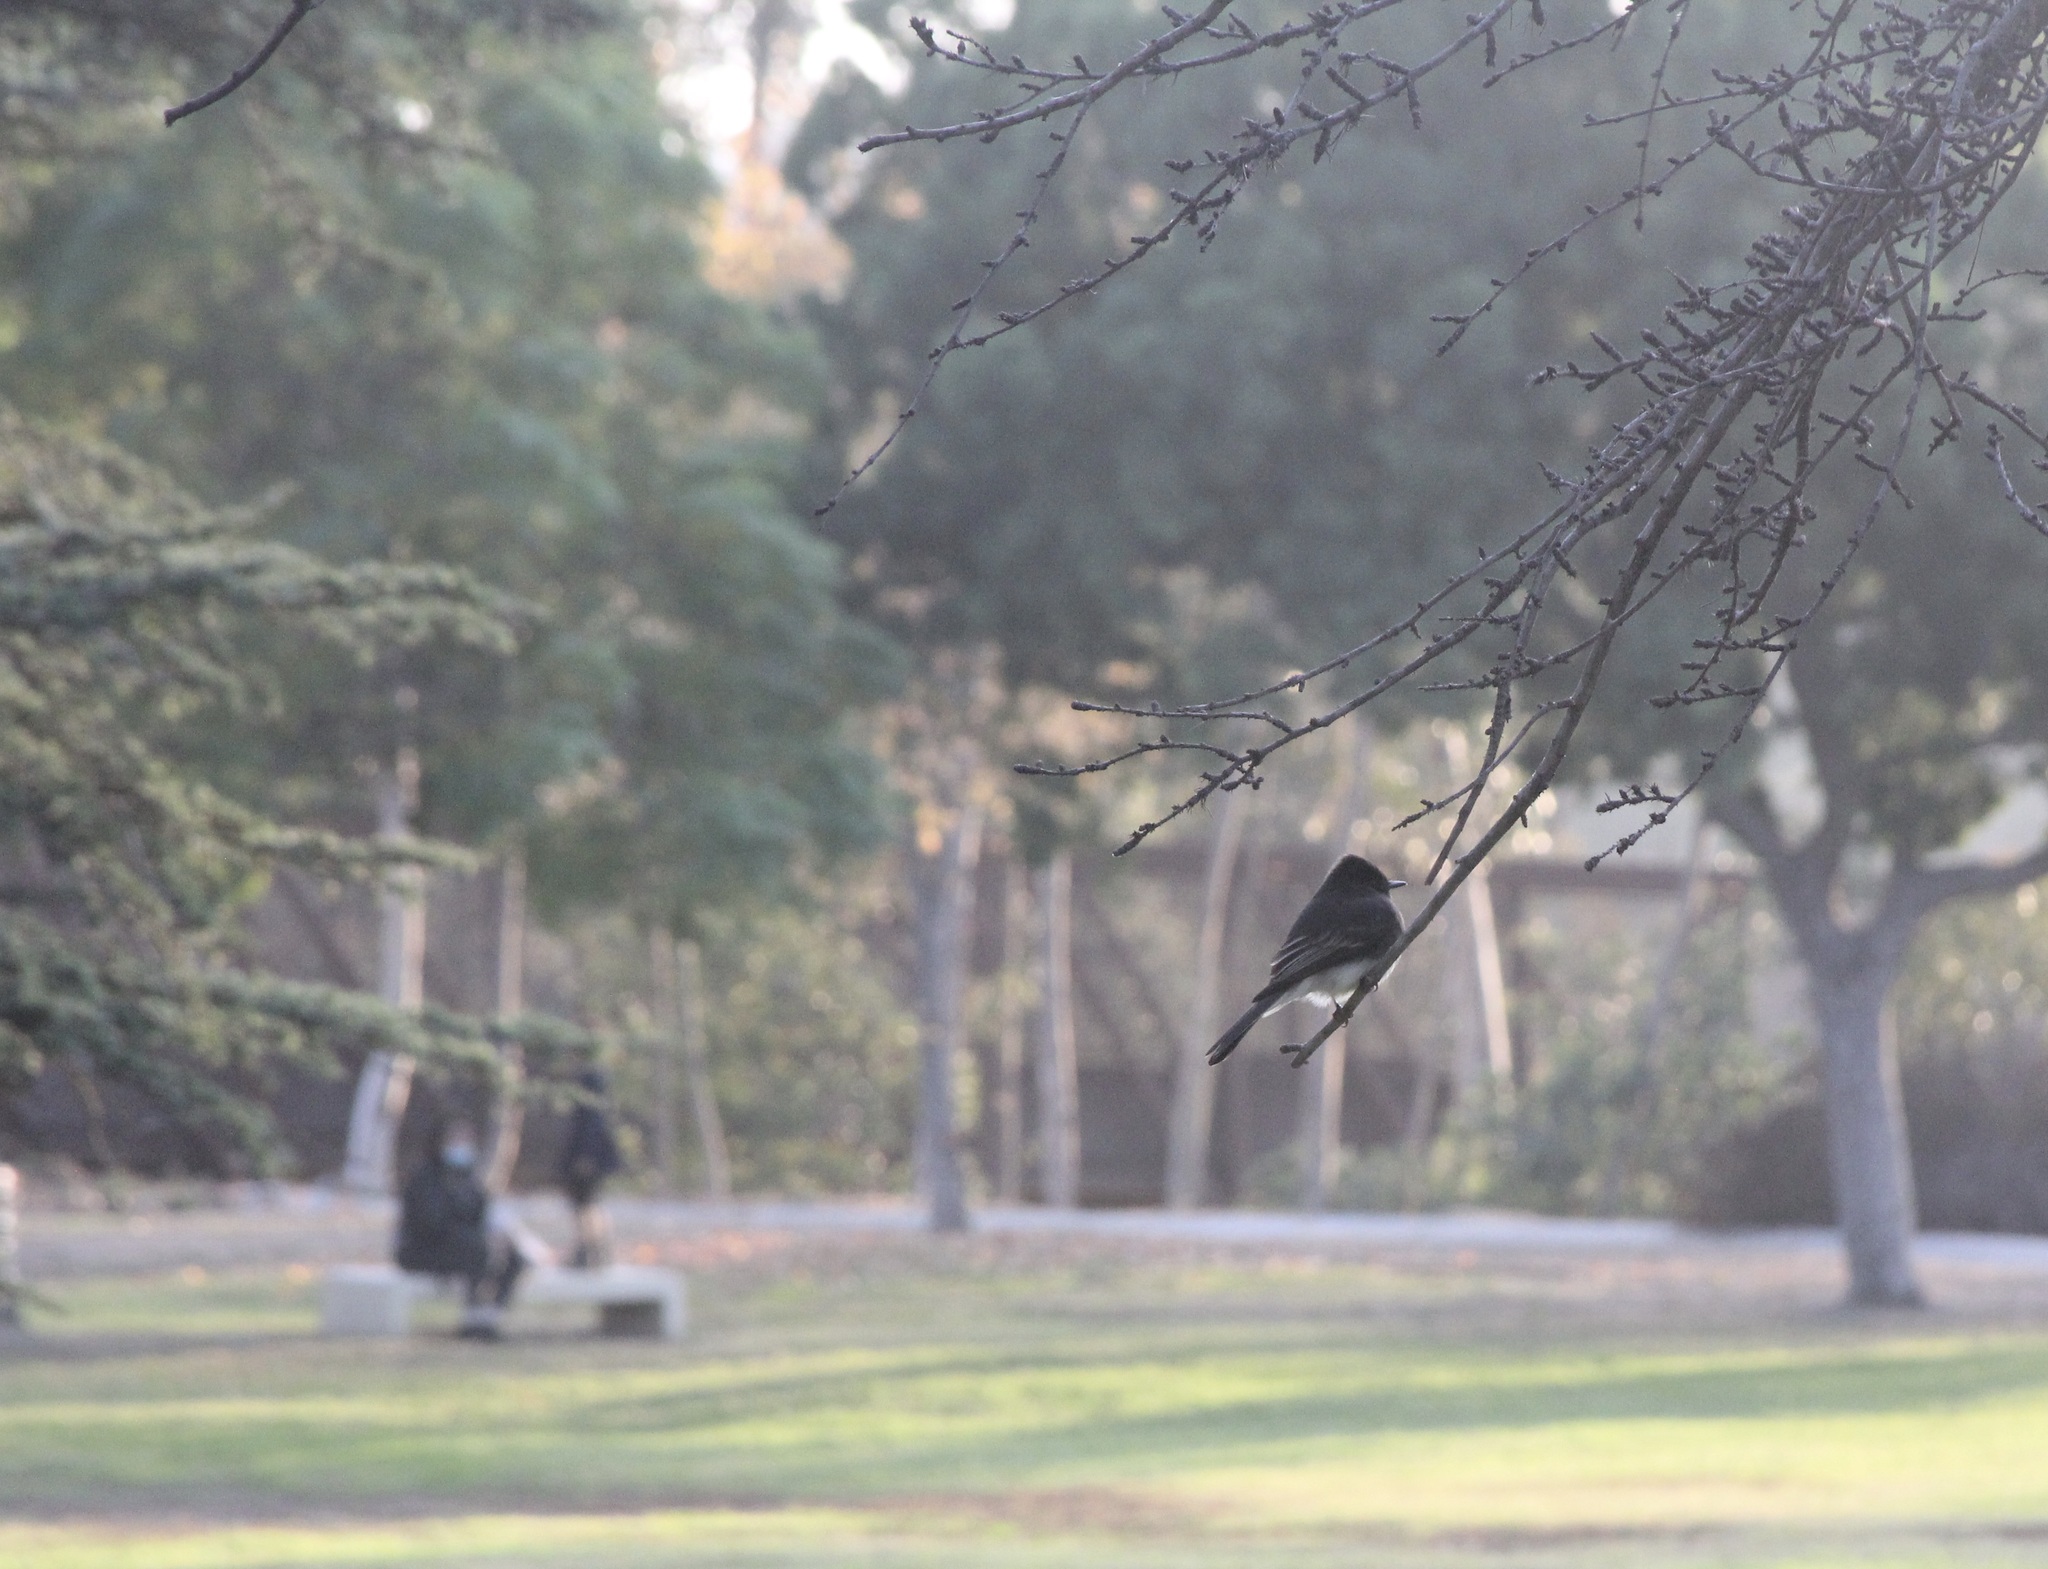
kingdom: Animalia
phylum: Chordata
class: Aves
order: Passeriformes
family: Tyrannidae
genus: Sayornis
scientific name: Sayornis nigricans
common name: Black phoebe
